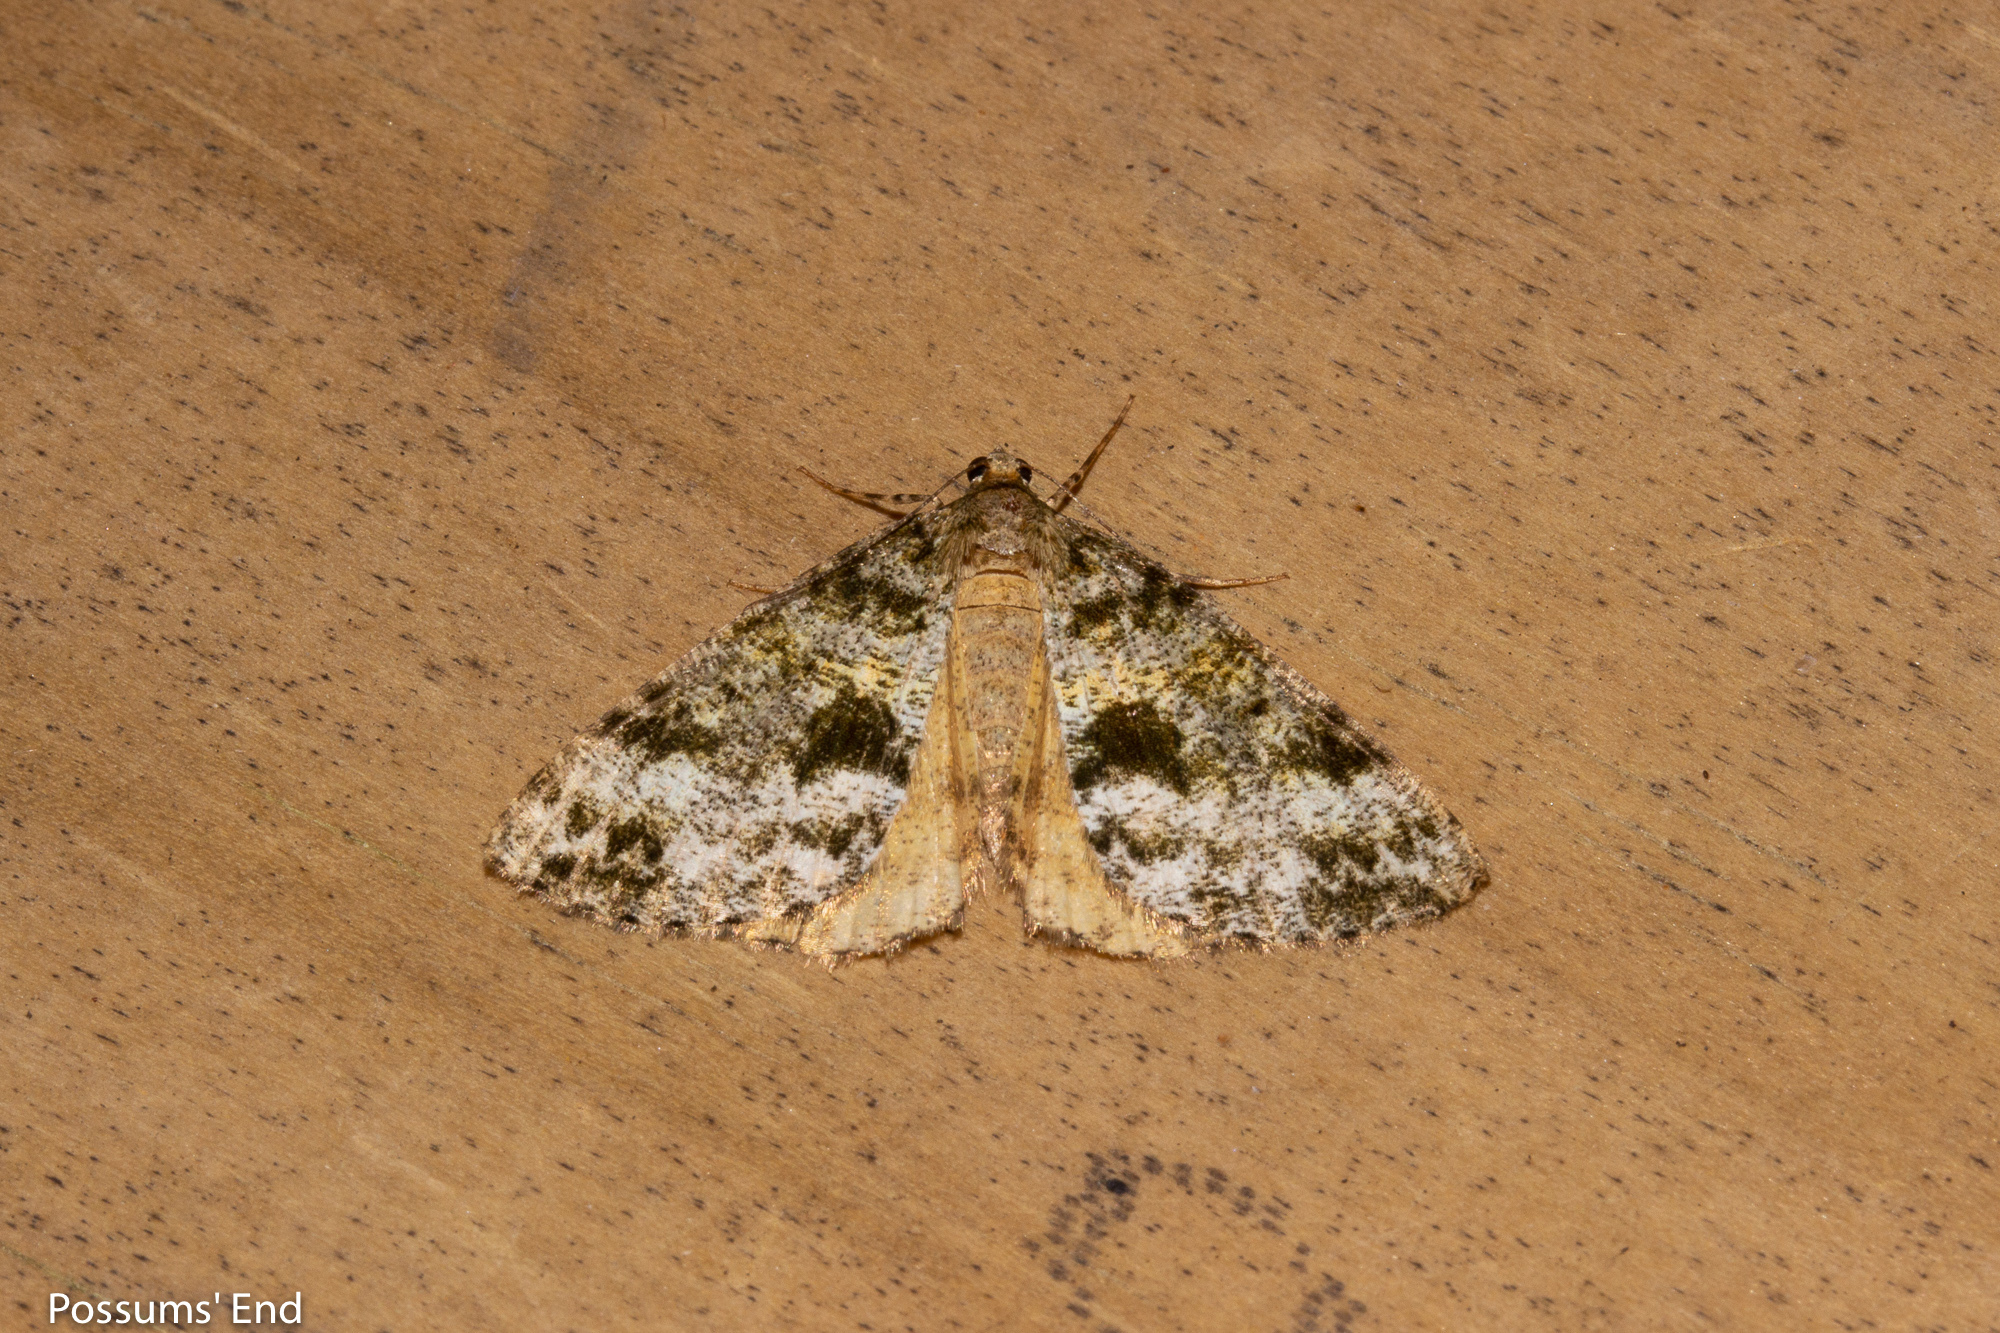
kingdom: Animalia
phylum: Arthropoda
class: Insecta
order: Lepidoptera
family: Geometridae
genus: Pseudocoremia
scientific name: Pseudocoremia lactiflua
